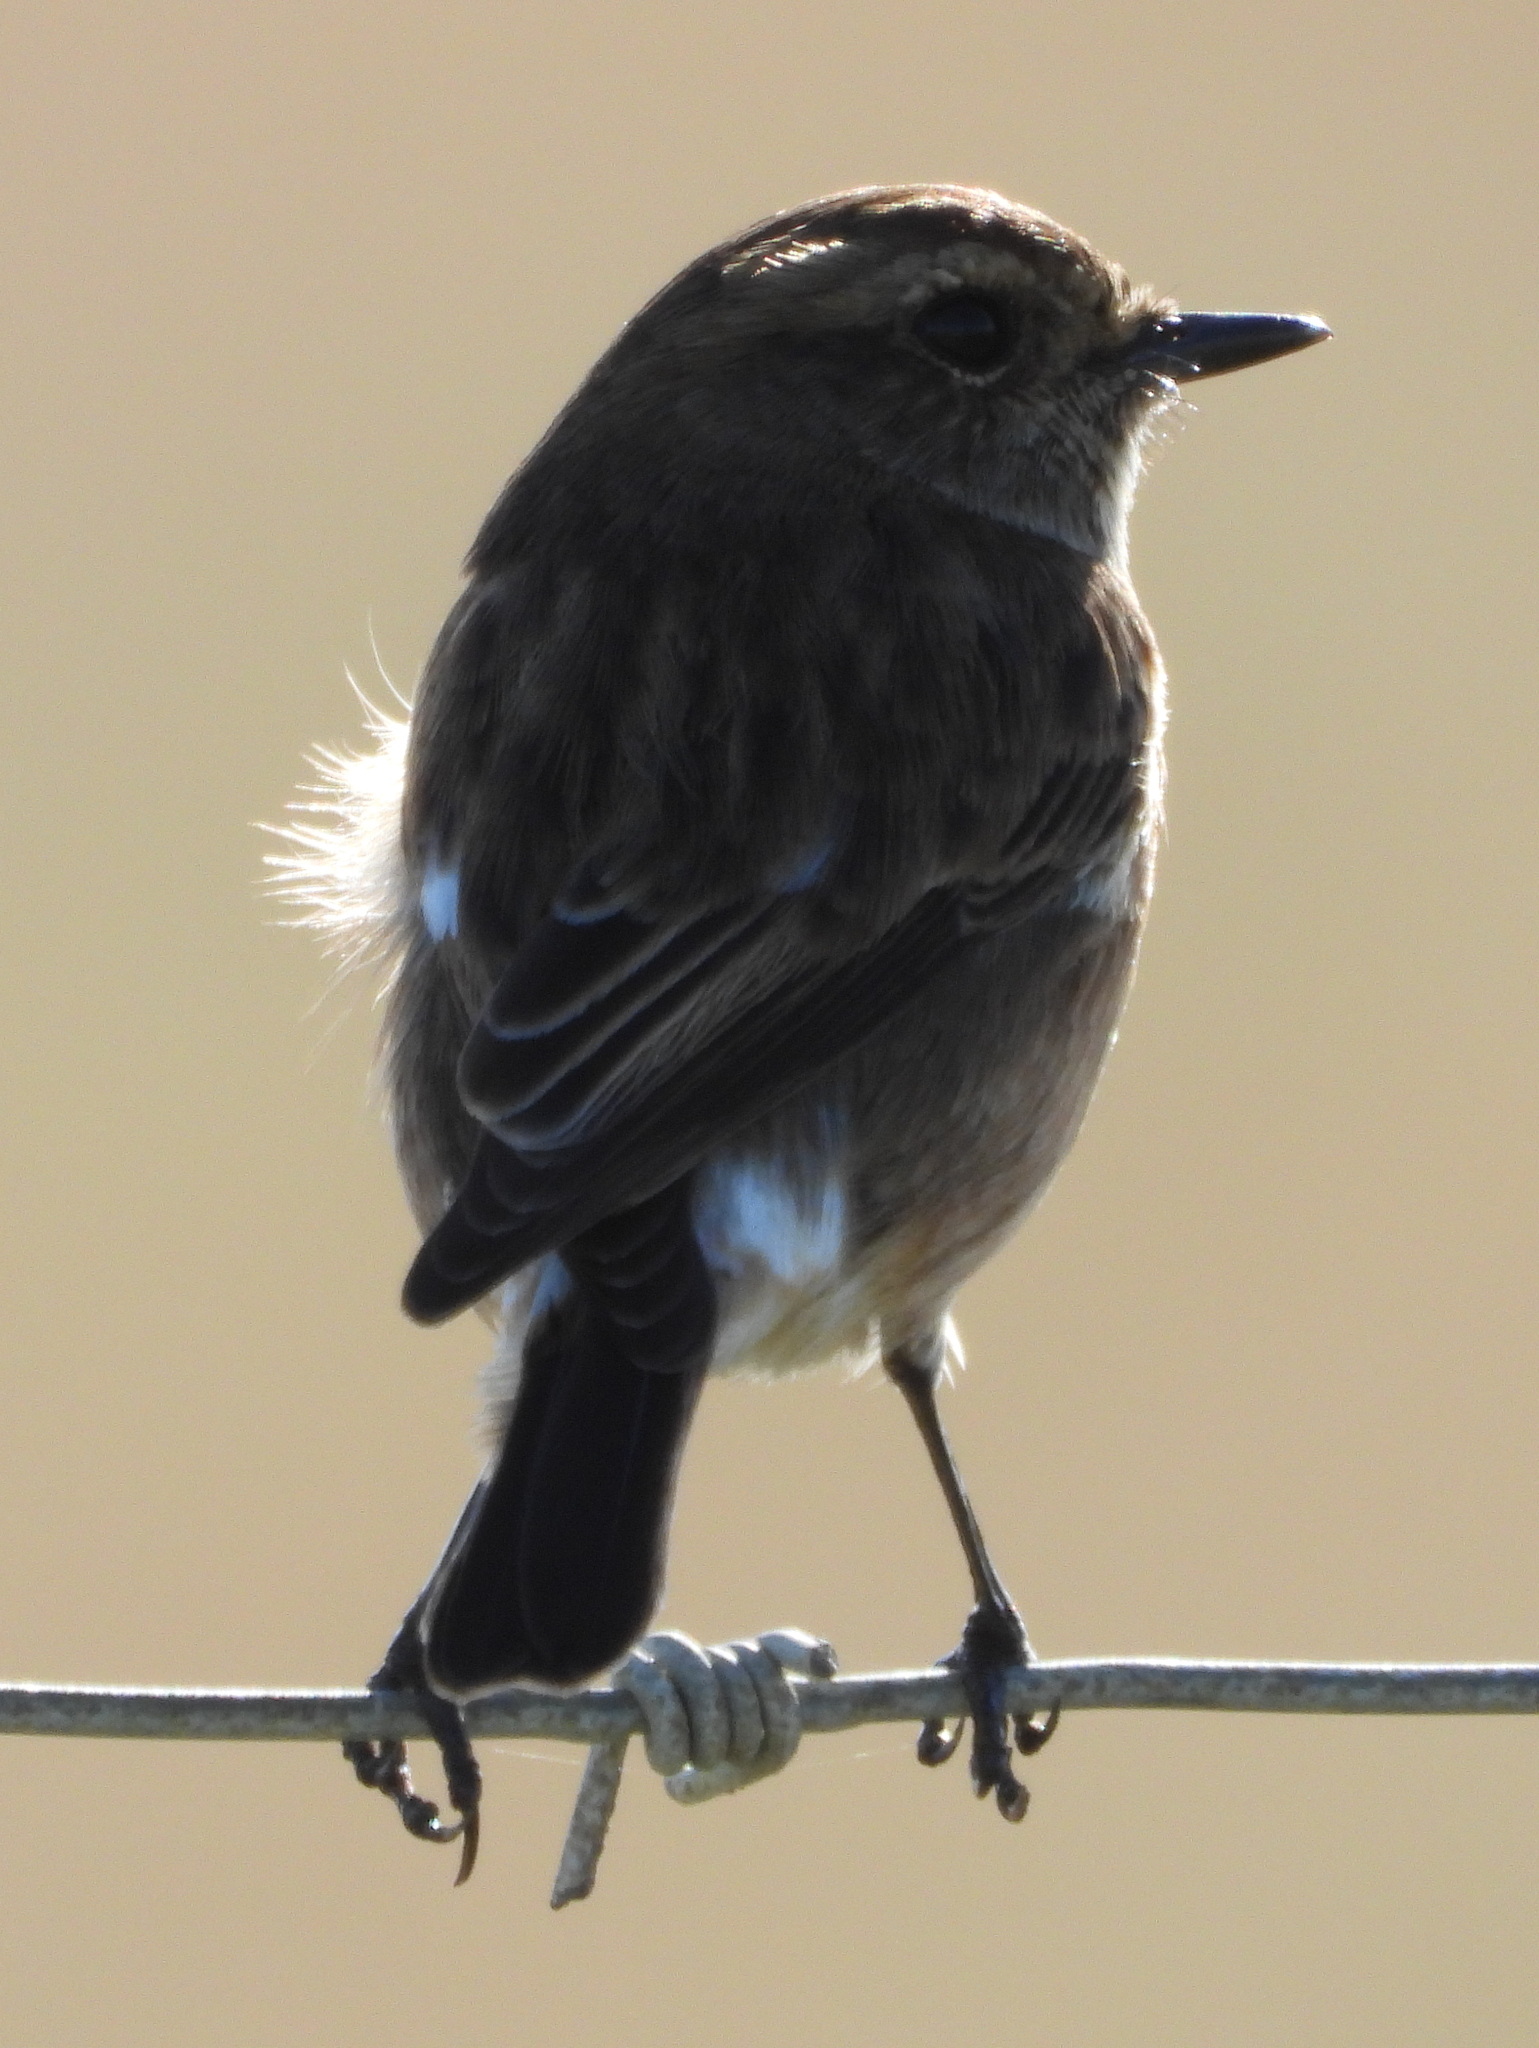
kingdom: Animalia
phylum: Chordata
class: Aves
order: Passeriformes
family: Muscicapidae
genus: Saxicola
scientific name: Saxicola torquatus
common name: African stonechat
